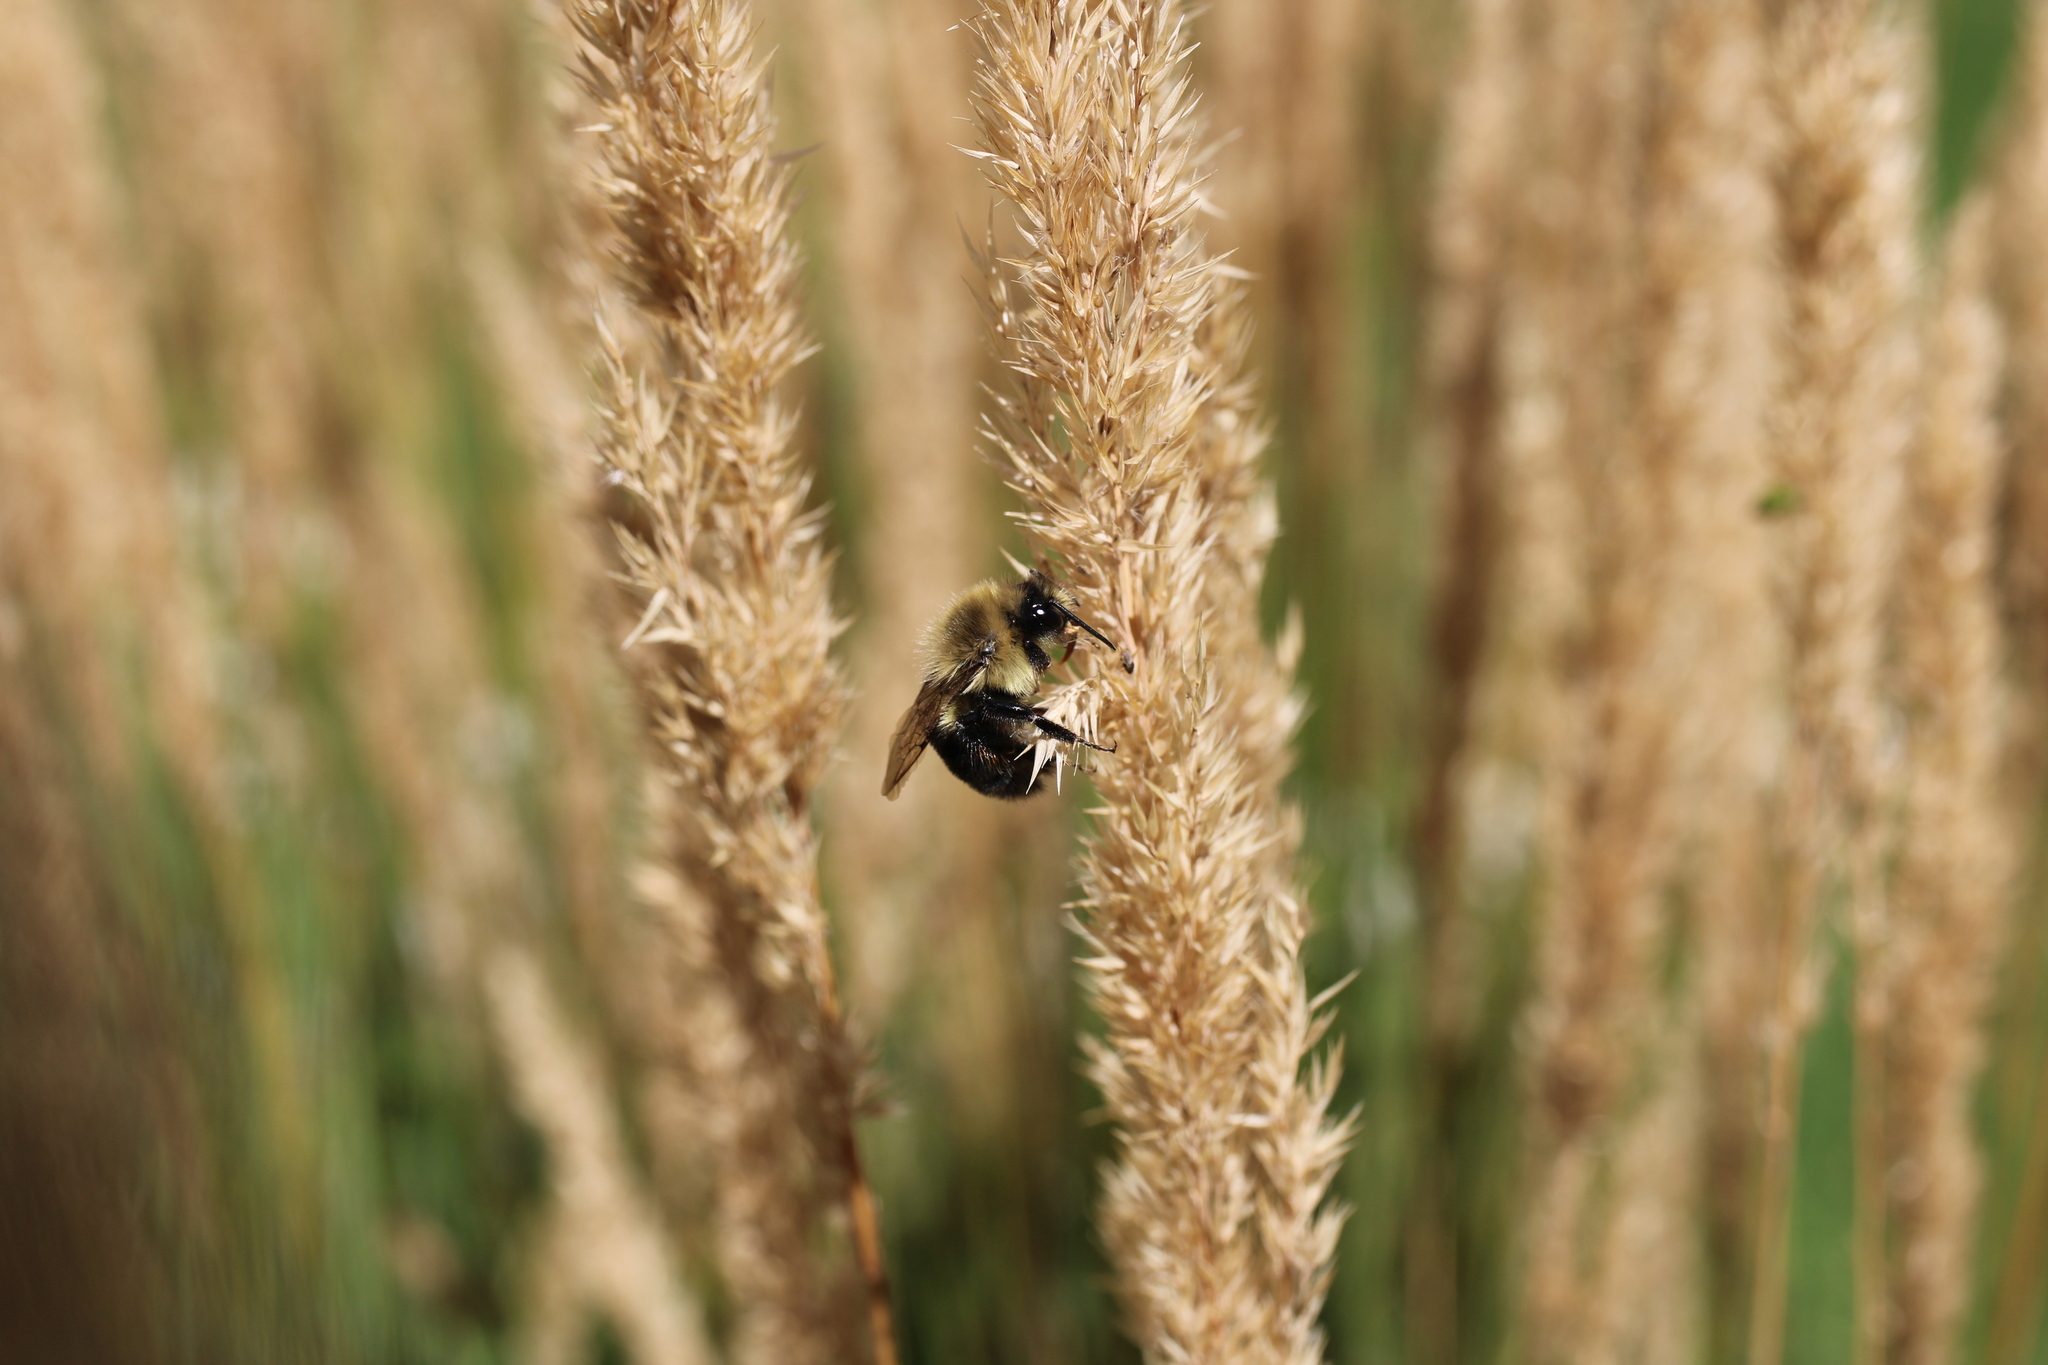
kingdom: Animalia
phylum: Arthropoda
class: Insecta
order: Hymenoptera
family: Apidae
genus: Bombus
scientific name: Bombus impatiens
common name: Common eastern bumble bee
